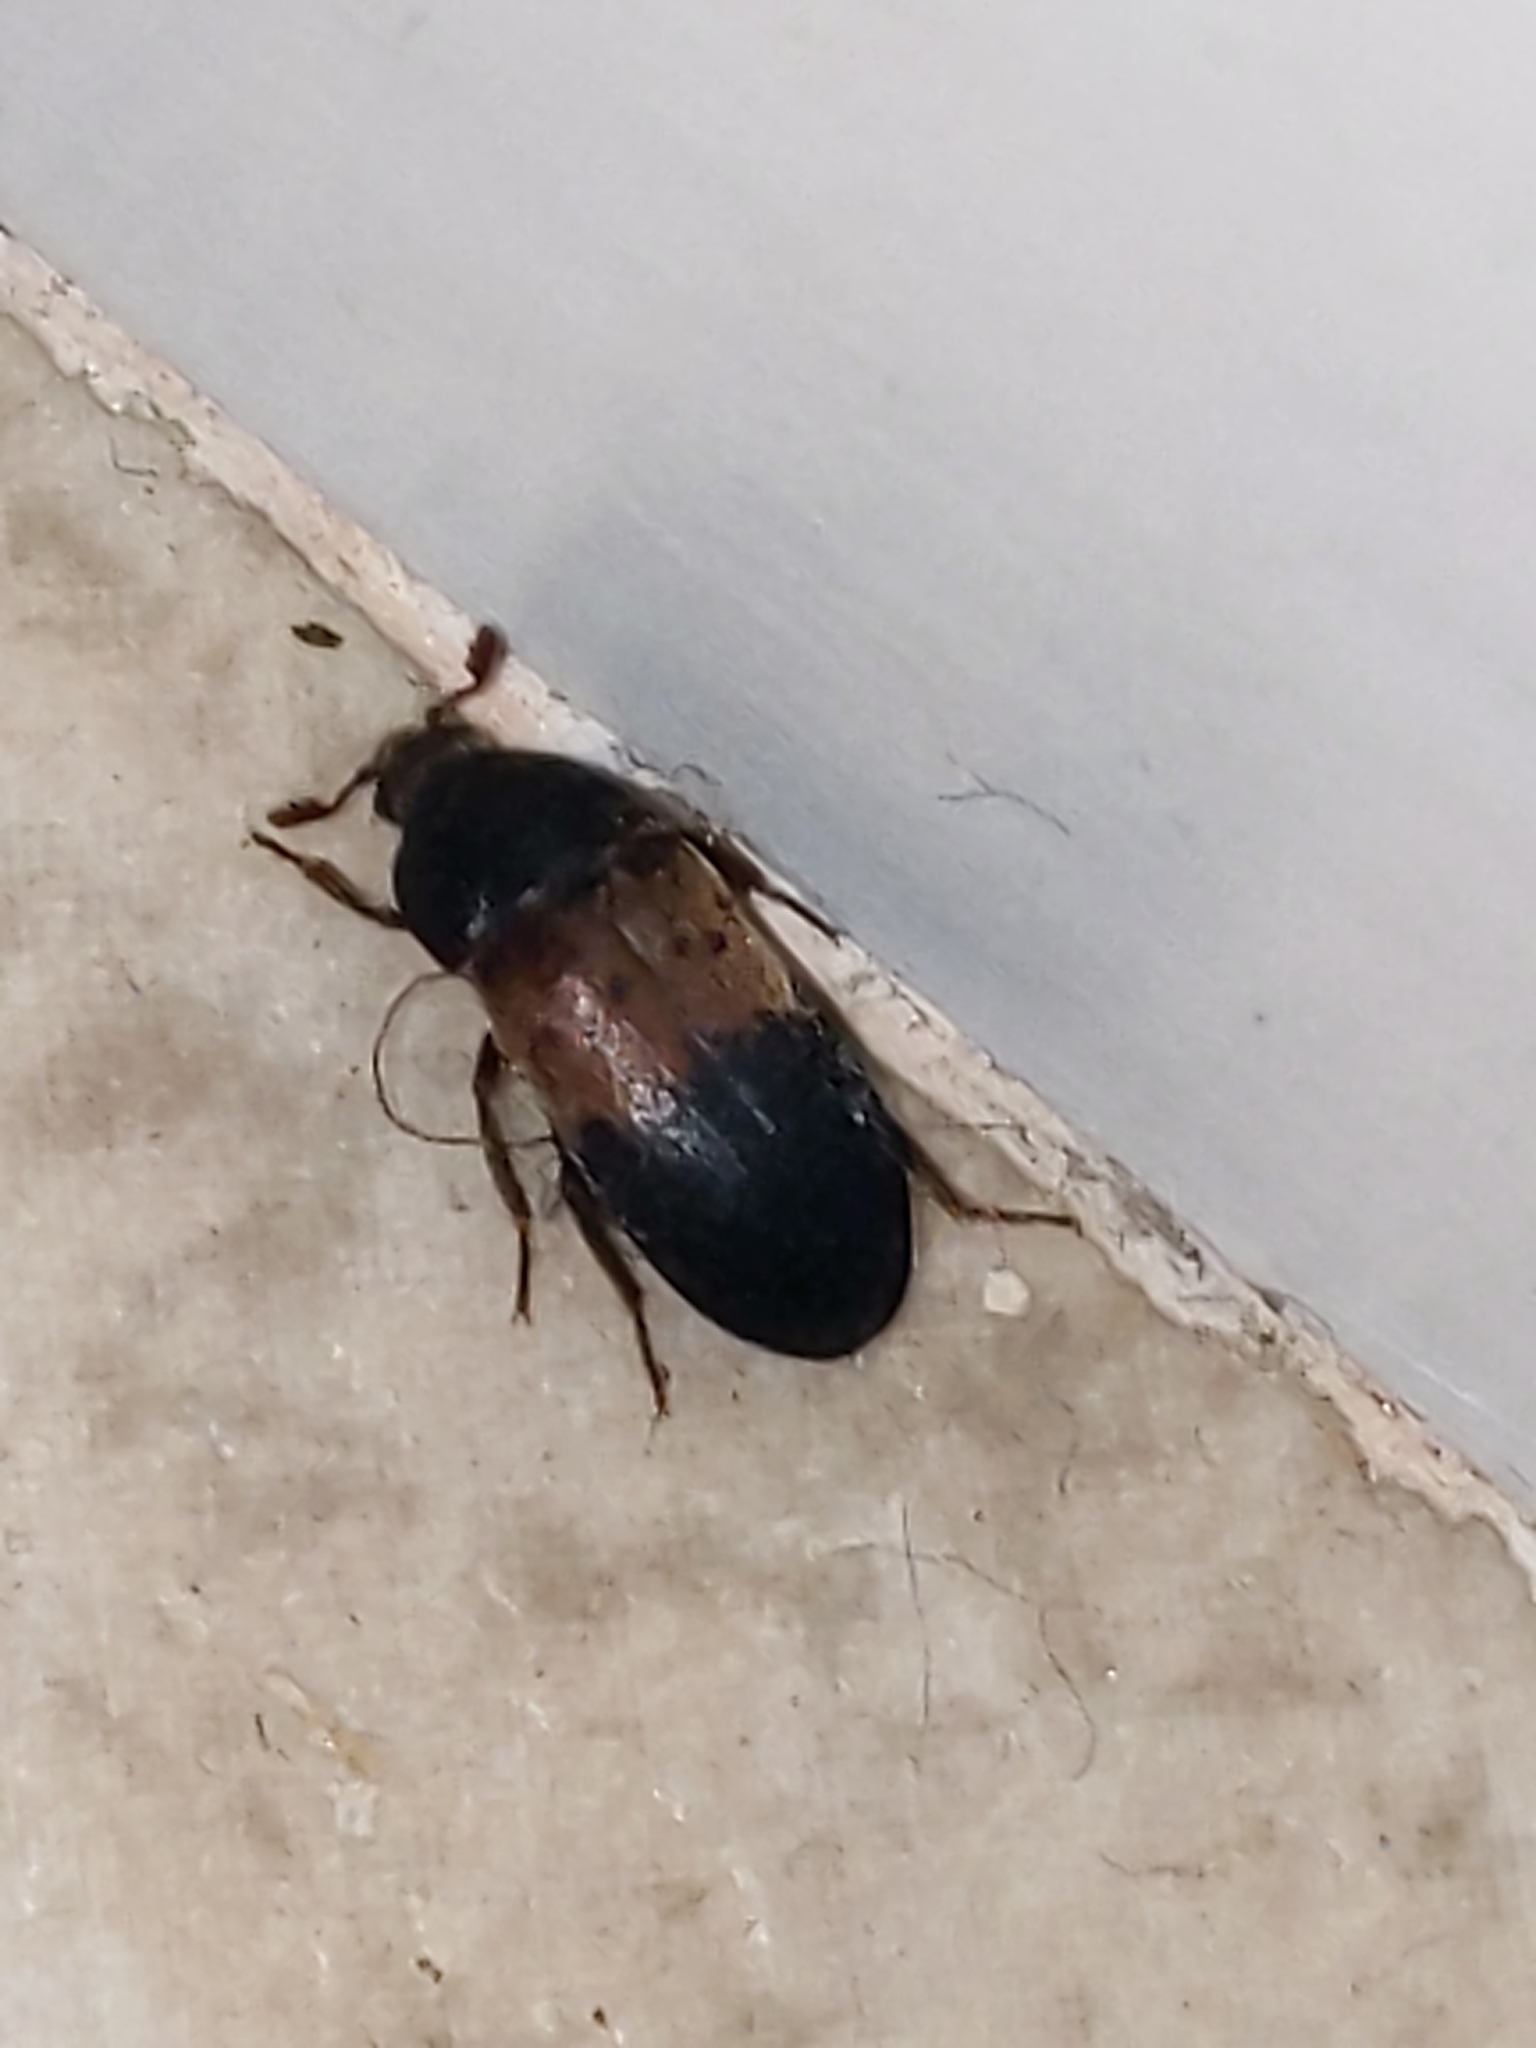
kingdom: Animalia
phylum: Arthropoda
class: Insecta
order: Coleoptera
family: Dermestidae
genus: Dermestes
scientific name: Dermestes lardarius
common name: Larder beetle
